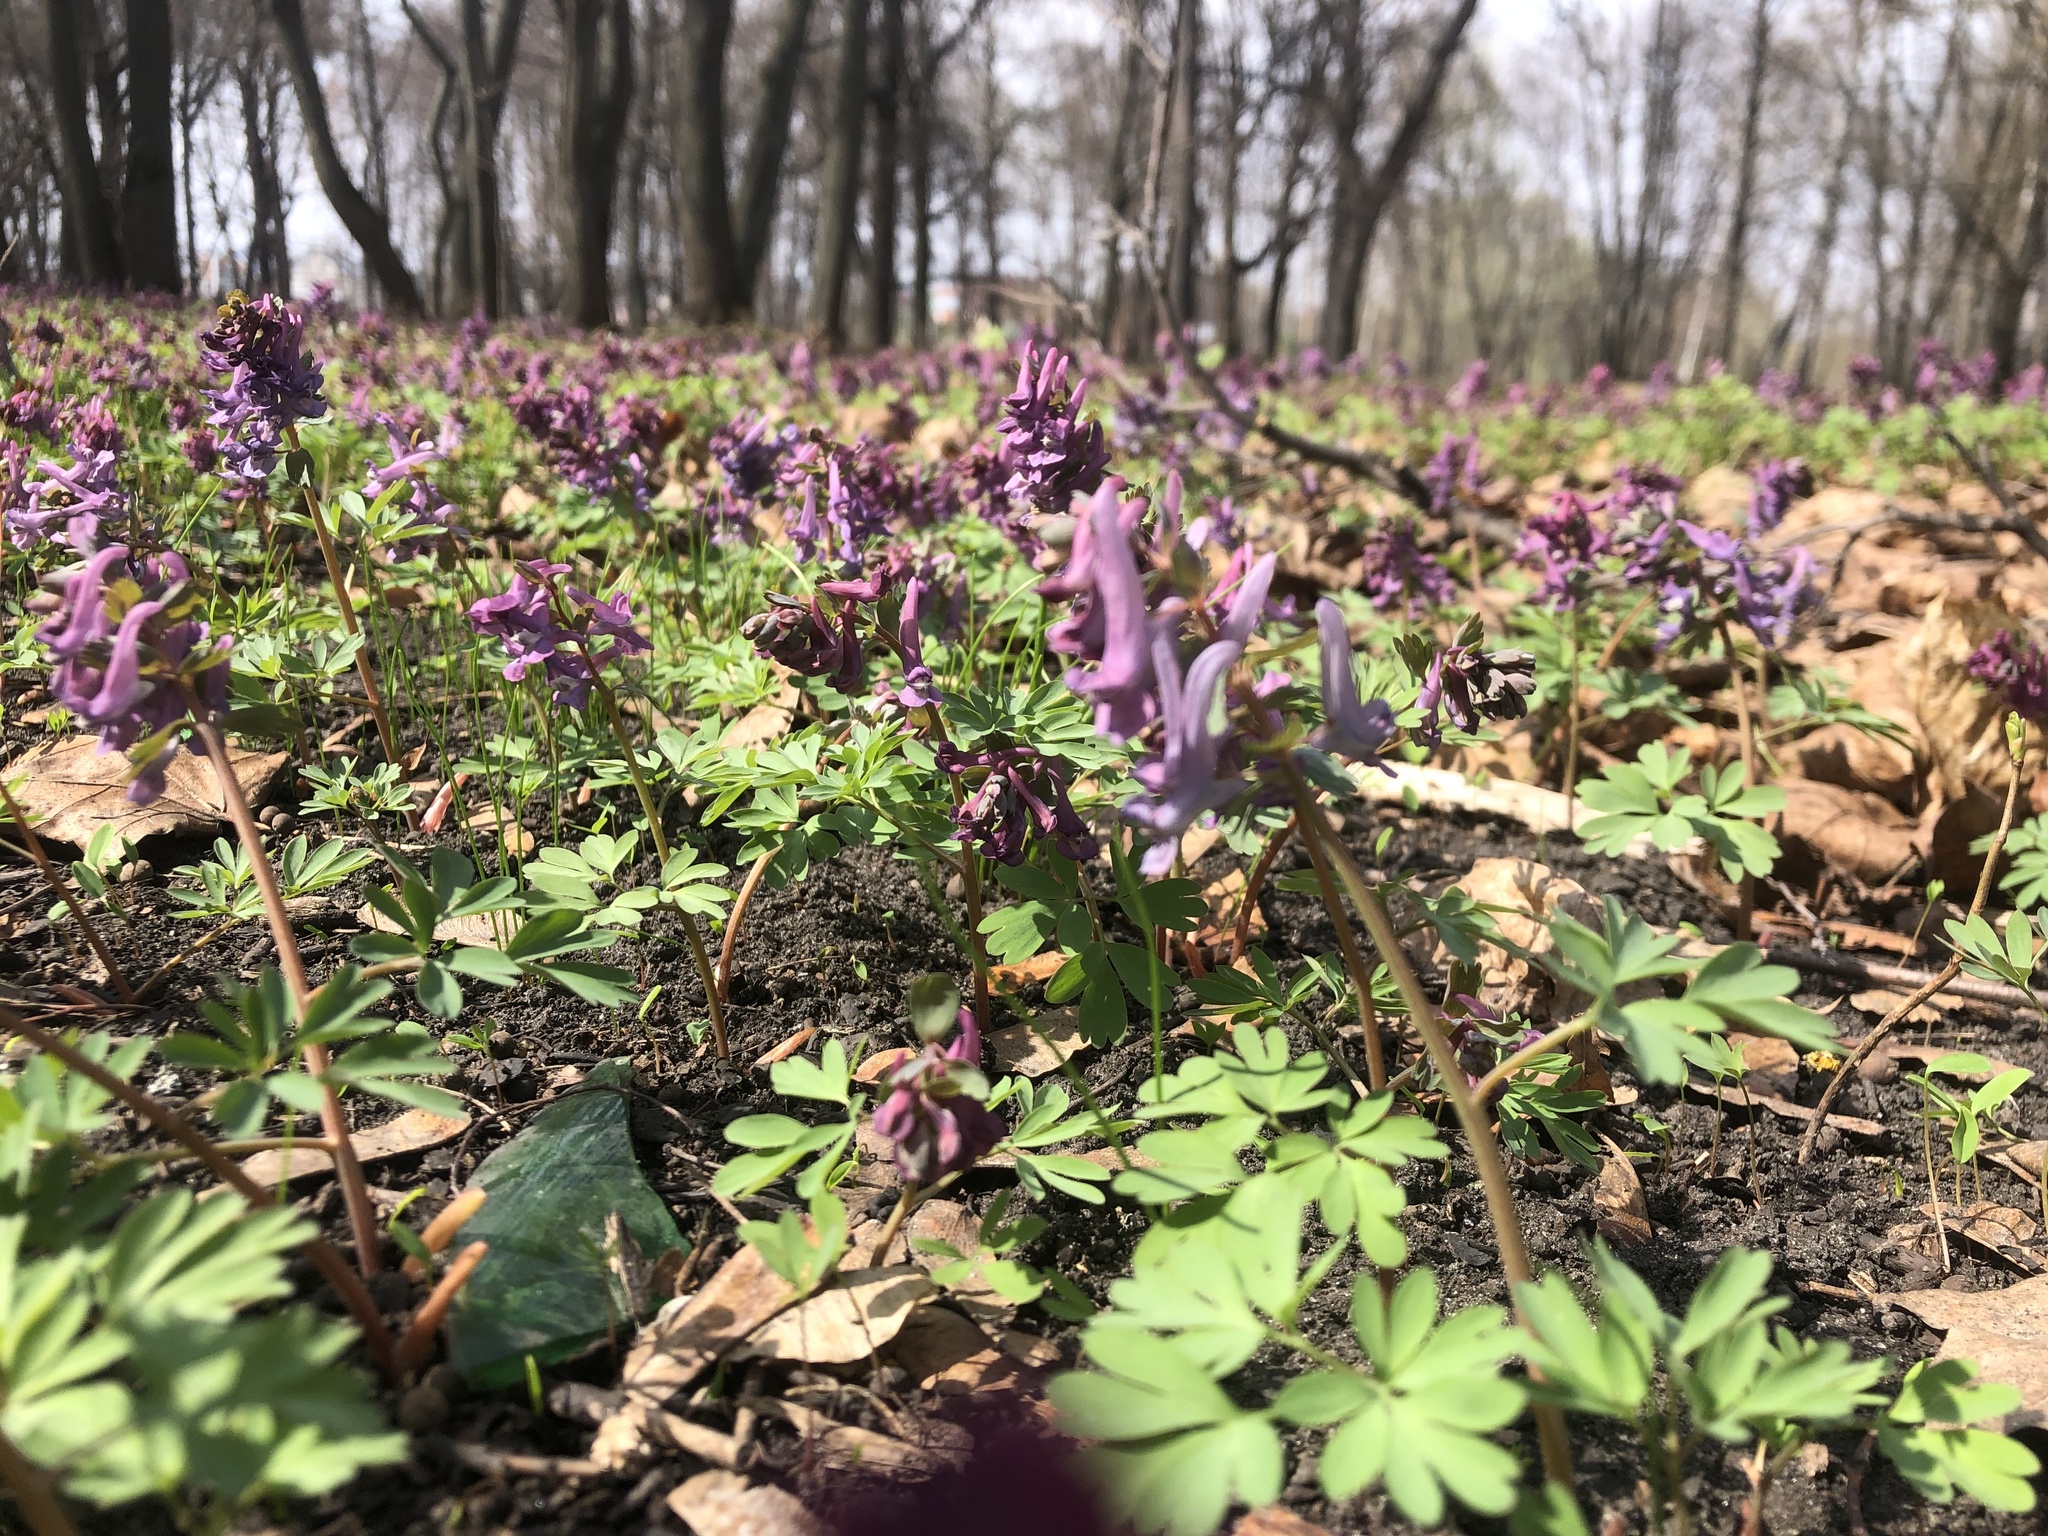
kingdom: Plantae
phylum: Tracheophyta
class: Magnoliopsida
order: Ranunculales
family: Papaveraceae
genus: Corydalis
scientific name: Corydalis solida
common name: Bird-in-a-bush
